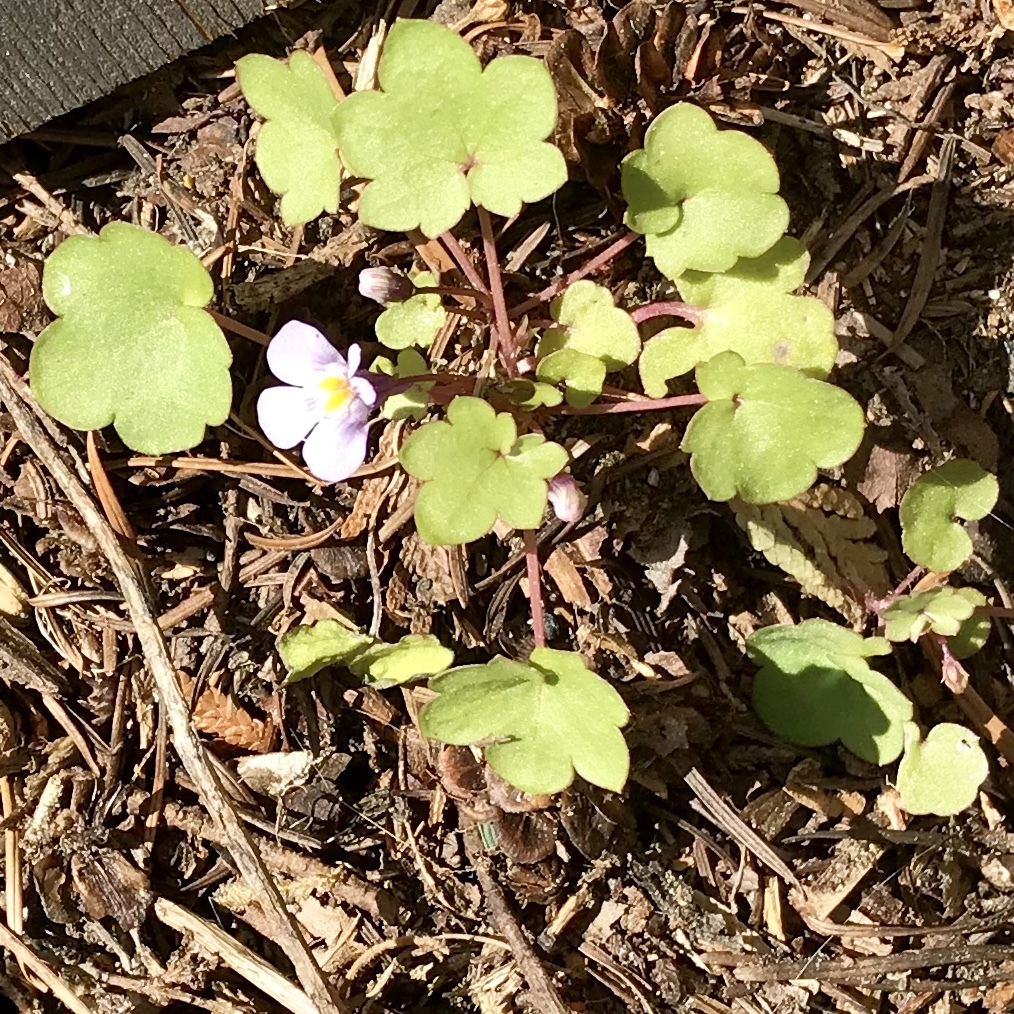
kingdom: Plantae
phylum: Tracheophyta
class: Magnoliopsida
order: Lamiales
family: Plantaginaceae
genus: Cymbalaria
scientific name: Cymbalaria muralis
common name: Ivy-leaved toadflax
